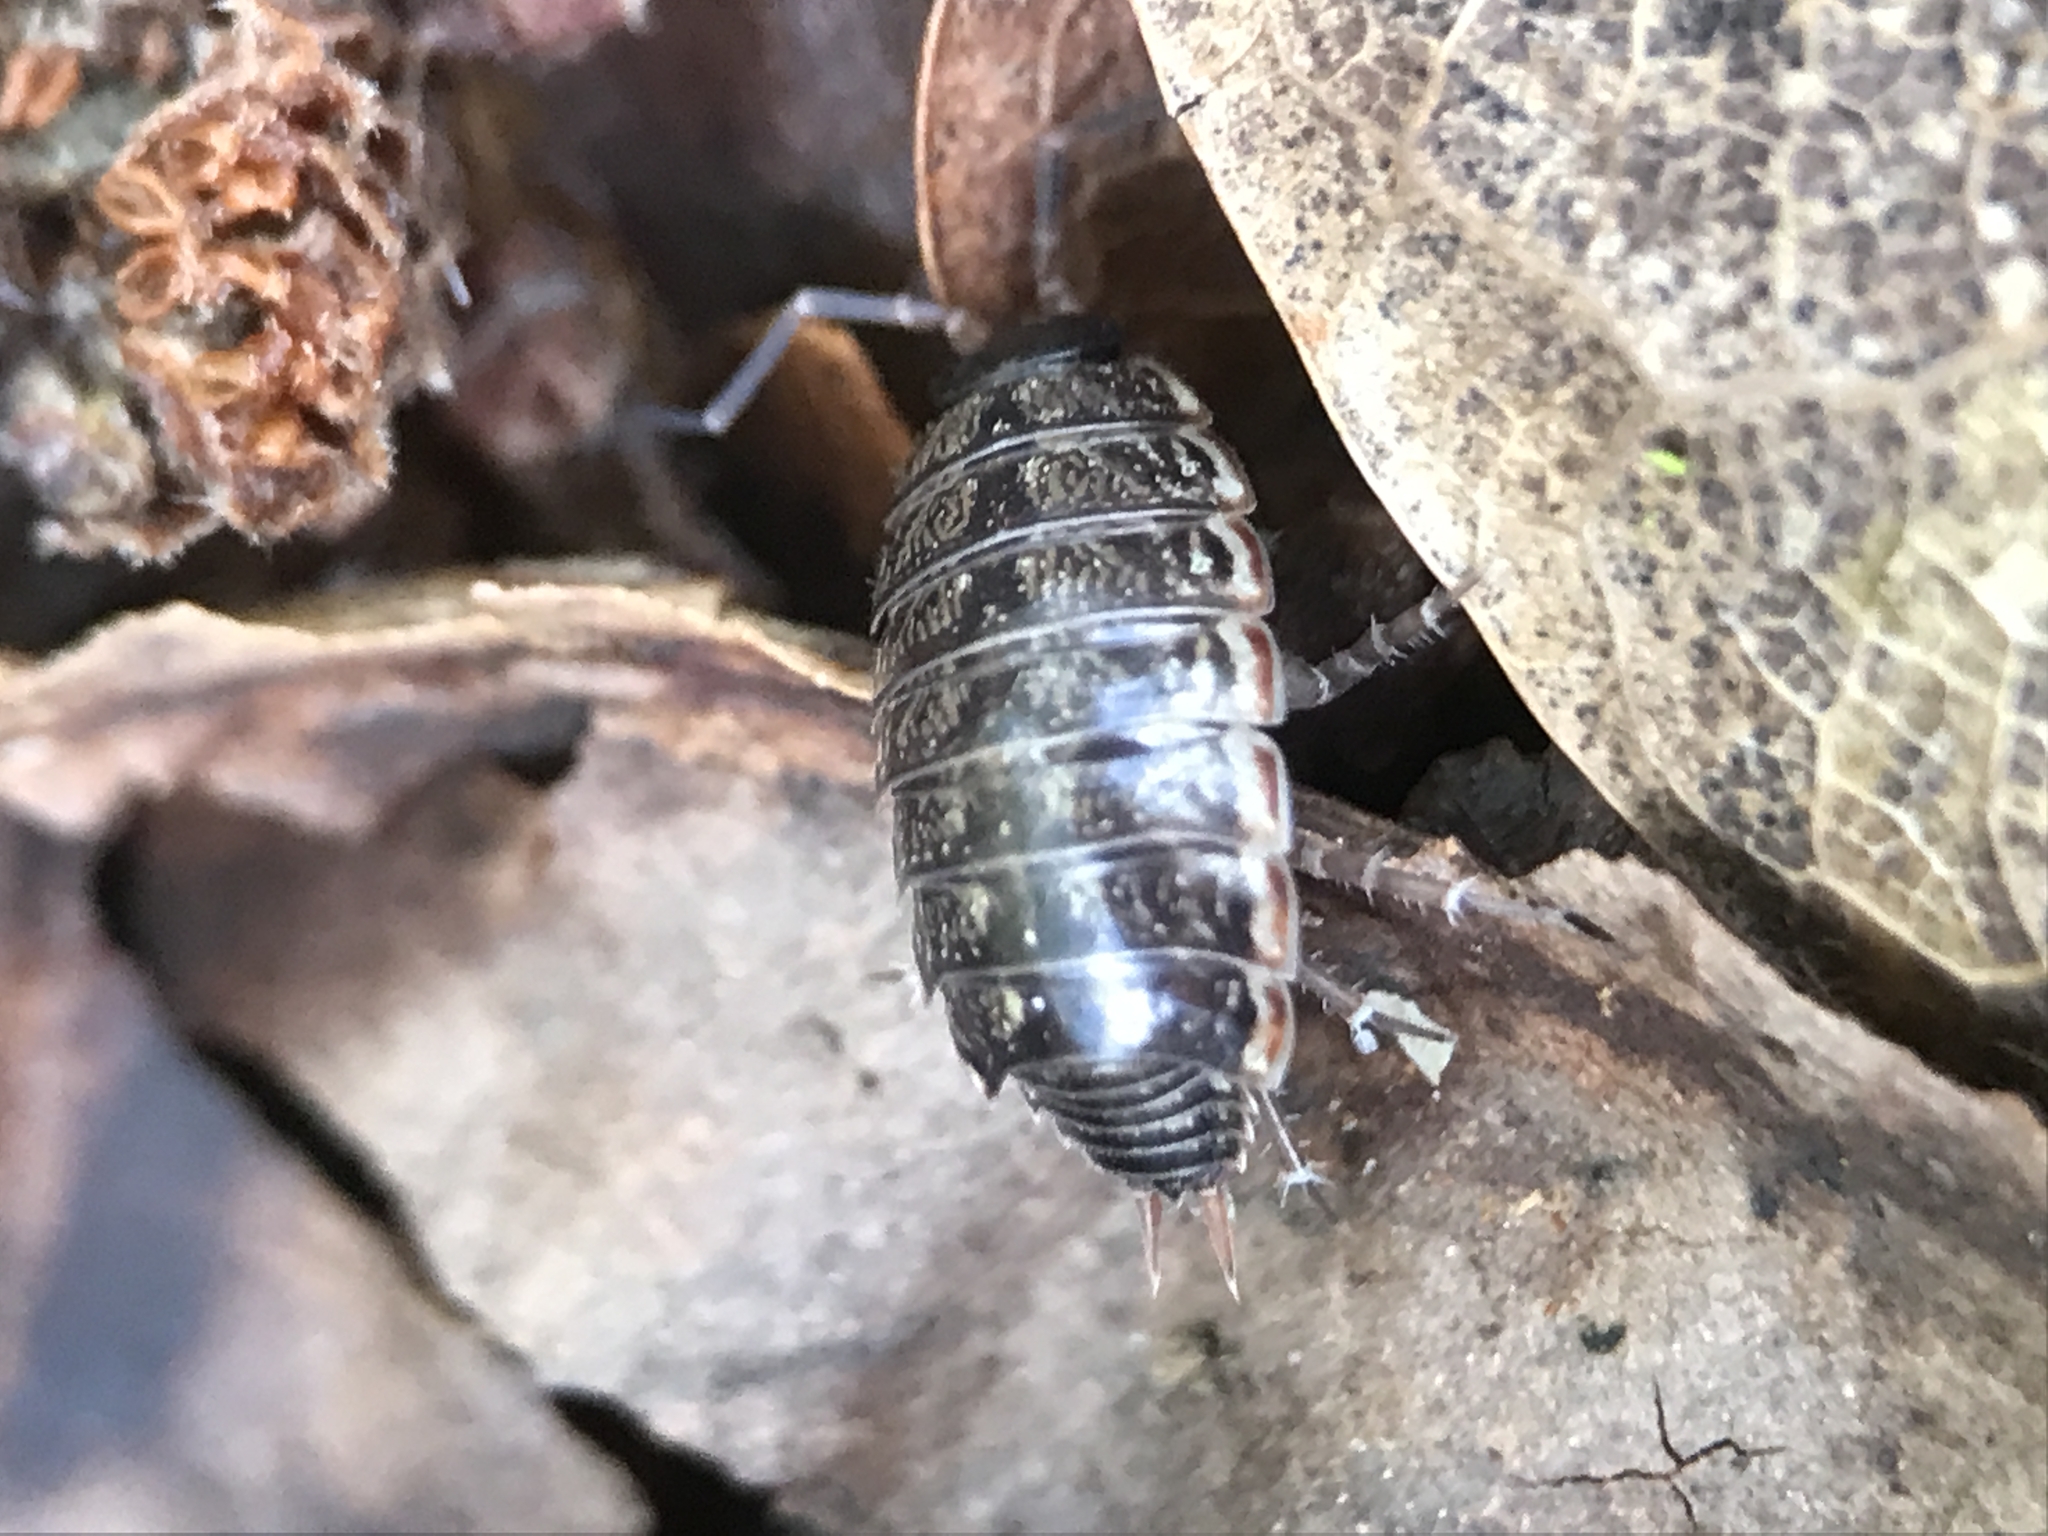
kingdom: Animalia
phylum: Arthropoda
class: Malacostraca
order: Isopoda
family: Philosciidae
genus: Philoscia
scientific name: Philoscia muscorum
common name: Common striped woodlouse
